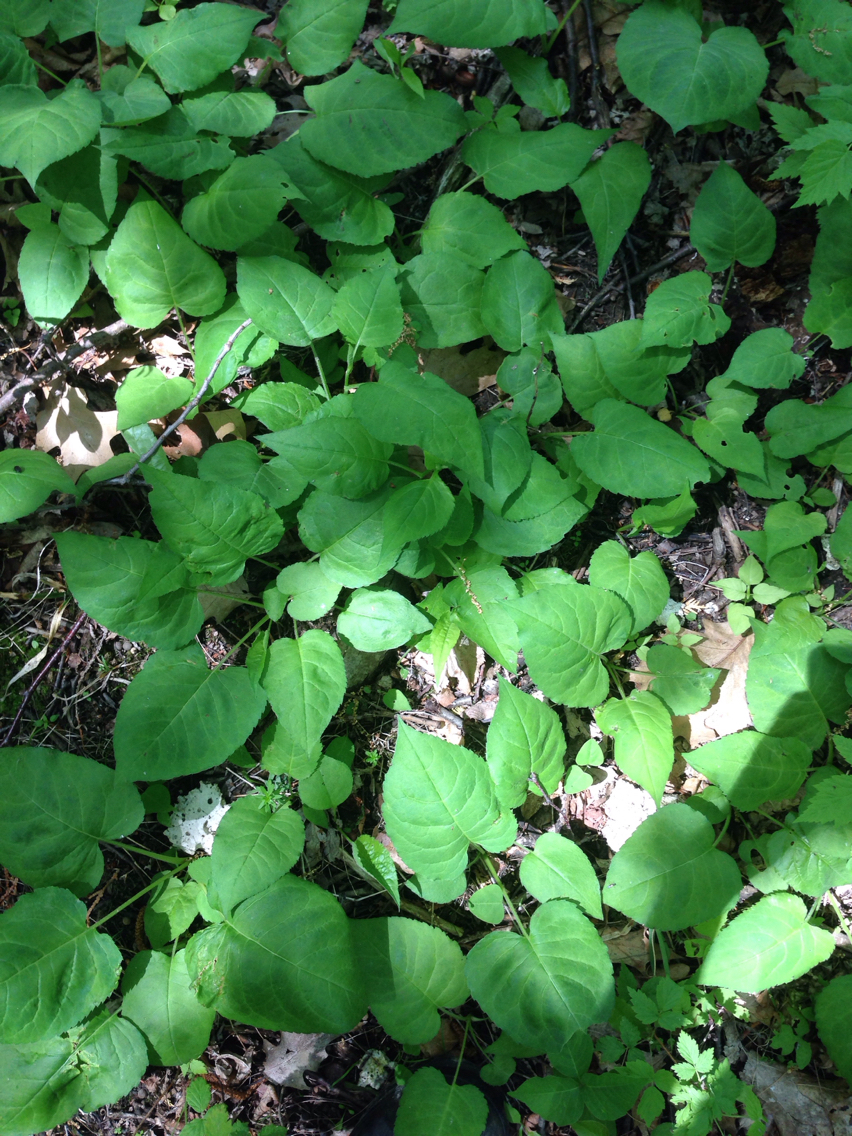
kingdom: Plantae
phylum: Tracheophyta
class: Magnoliopsida
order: Asterales
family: Asteraceae
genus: Eurybia
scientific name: Eurybia macrophylla
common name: Big-leaved aster
